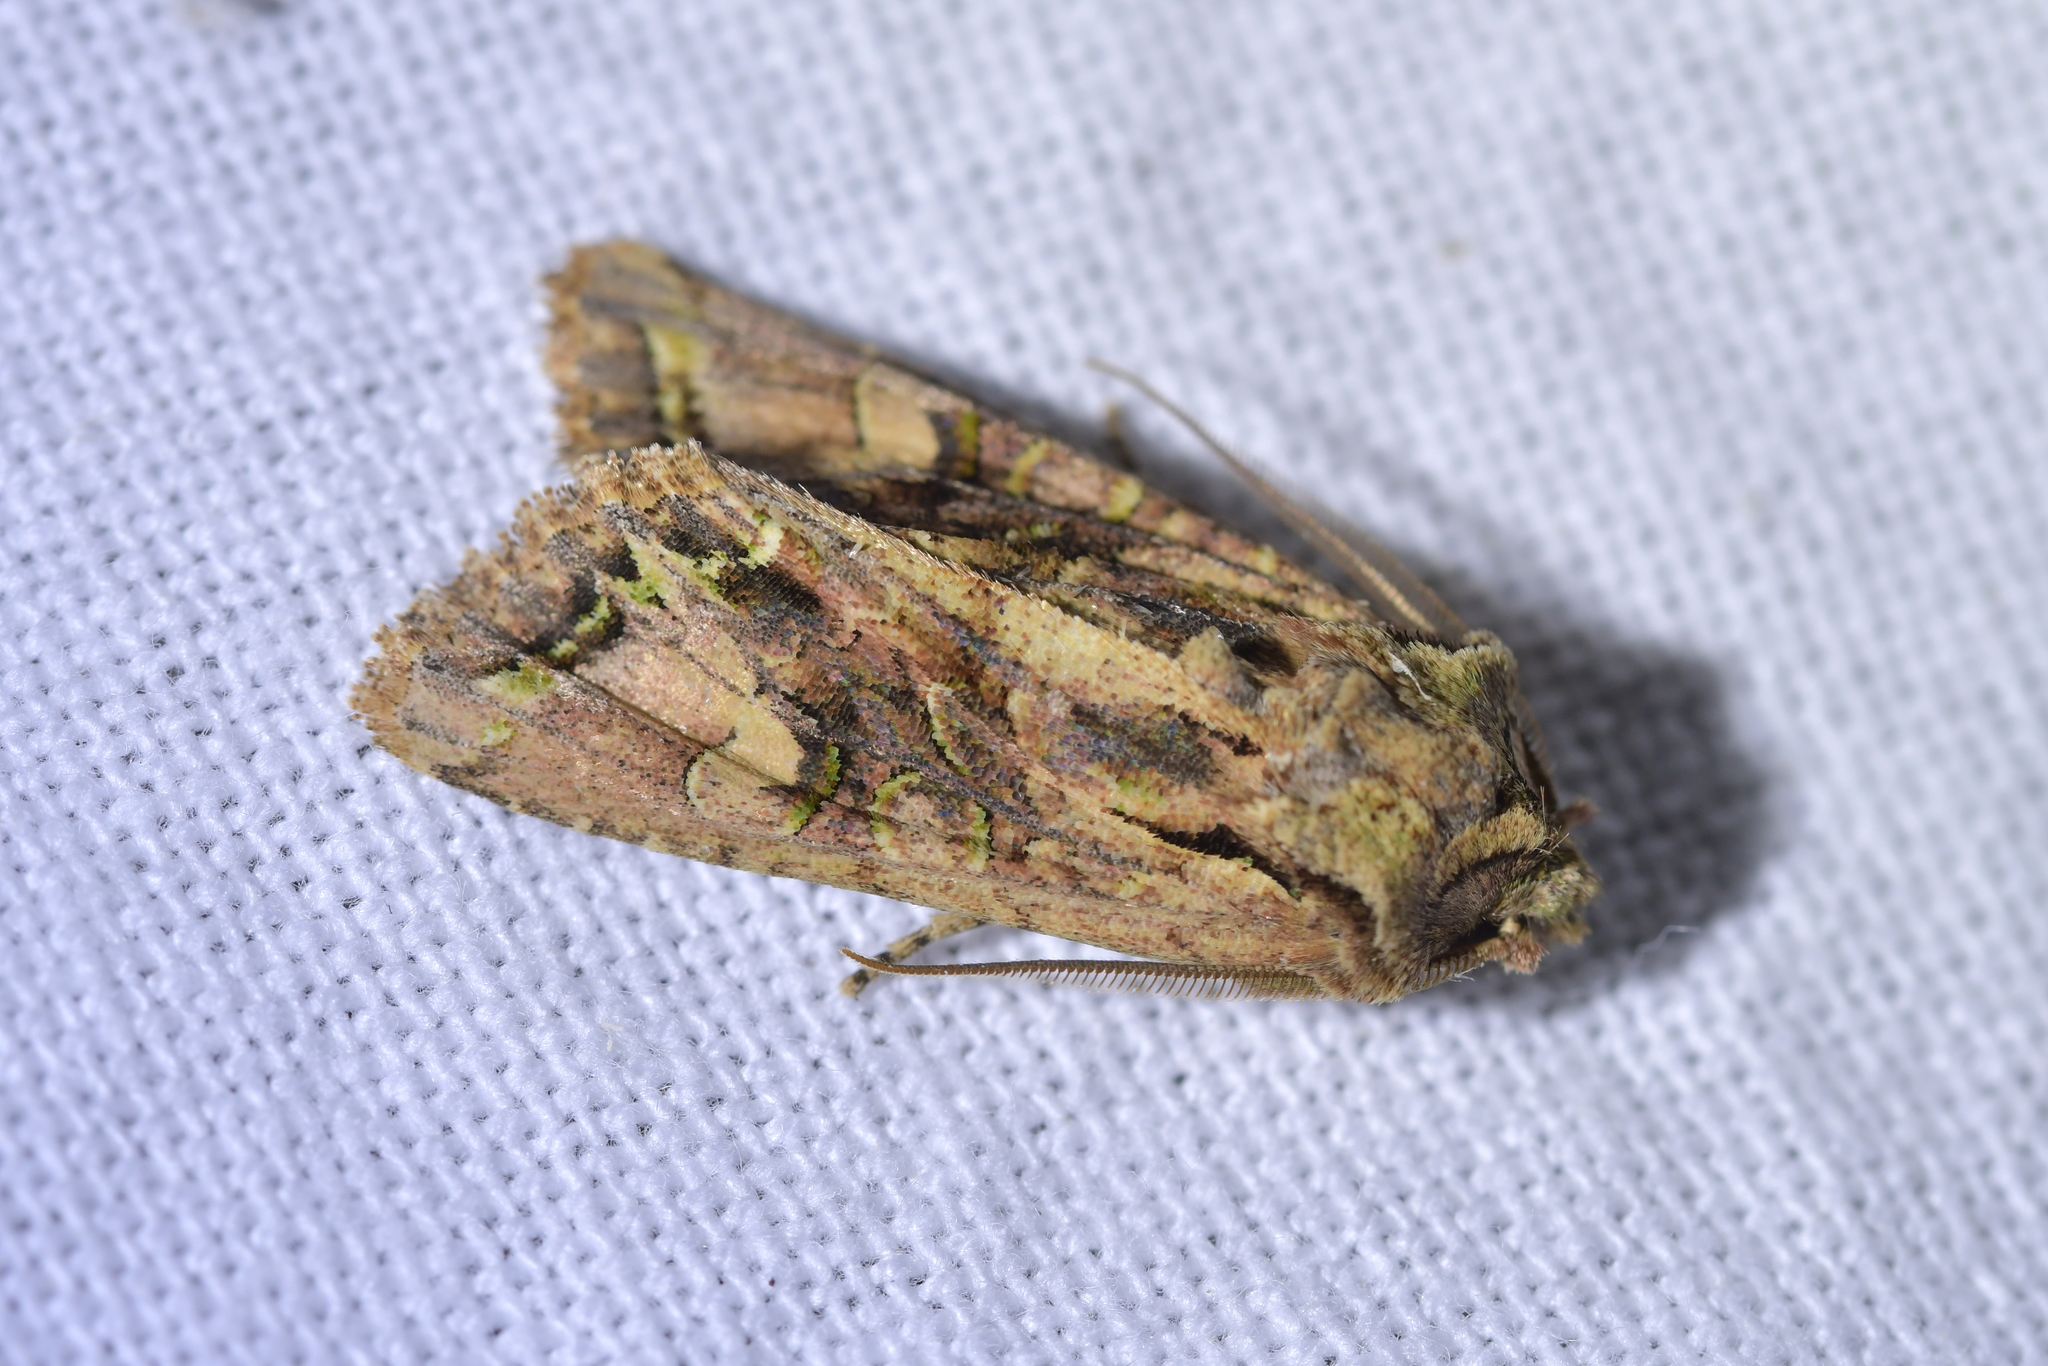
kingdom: Animalia
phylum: Arthropoda
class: Insecta
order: Lepidoptera
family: Noctuidae
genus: Ichneutica
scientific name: Ichneutica insignis
